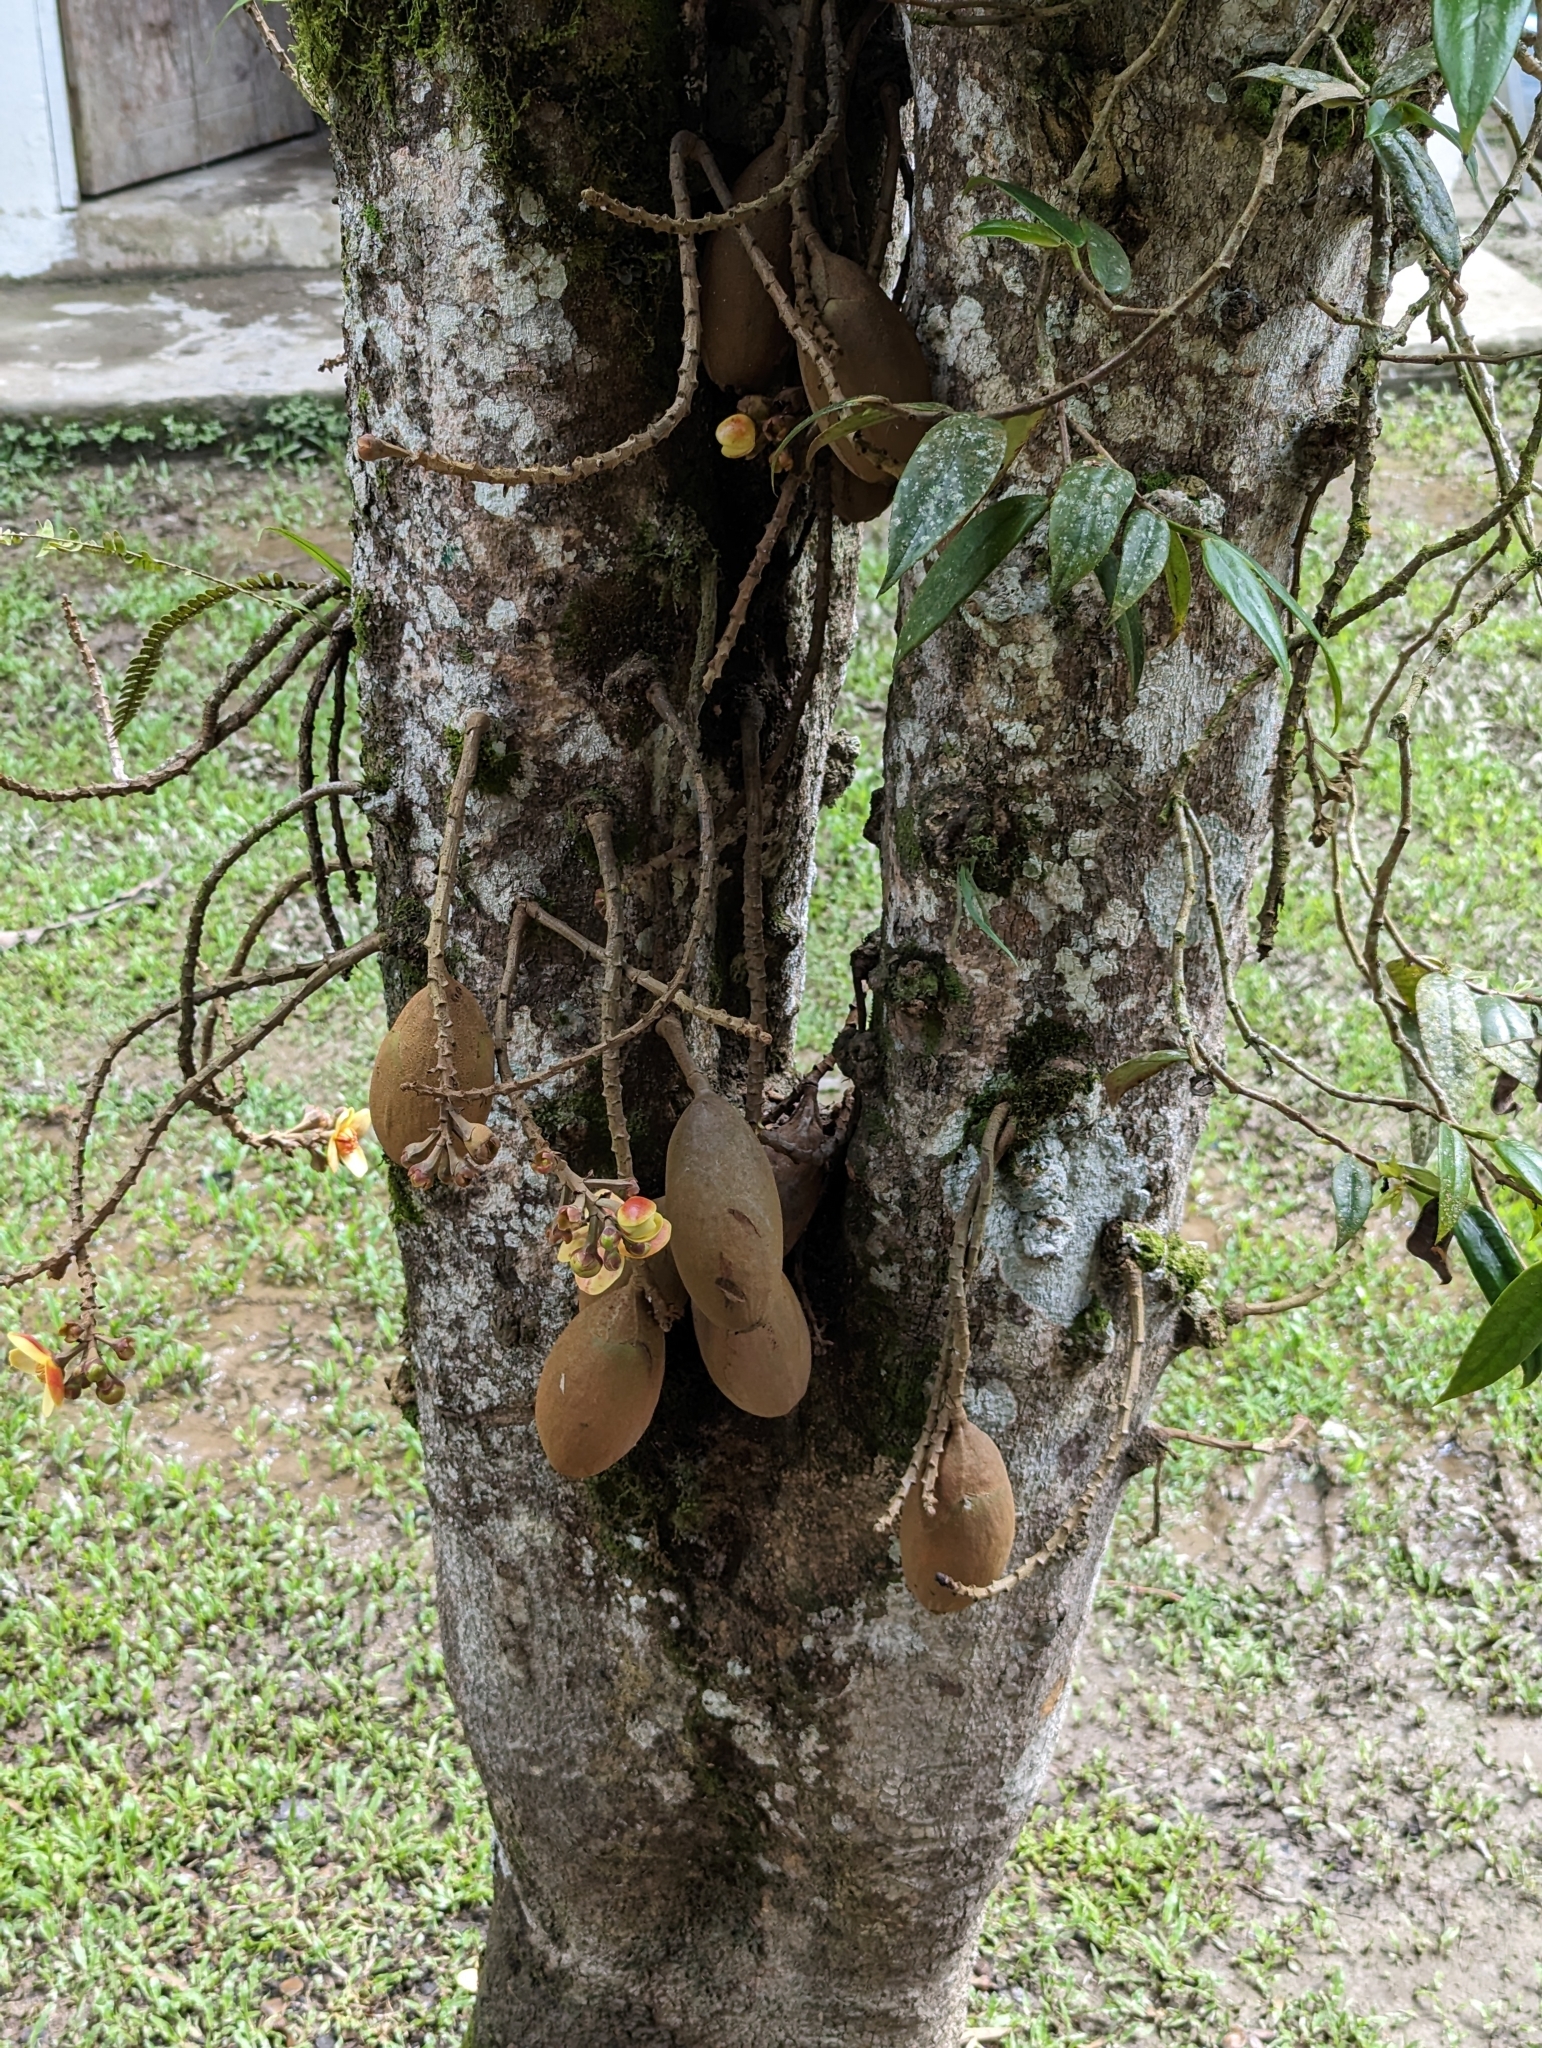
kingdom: Plantae
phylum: Tracheophyta
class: Magnoliopsida
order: Ericales
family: Lecythidaceae
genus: Grias
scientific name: Grias neuberthii
